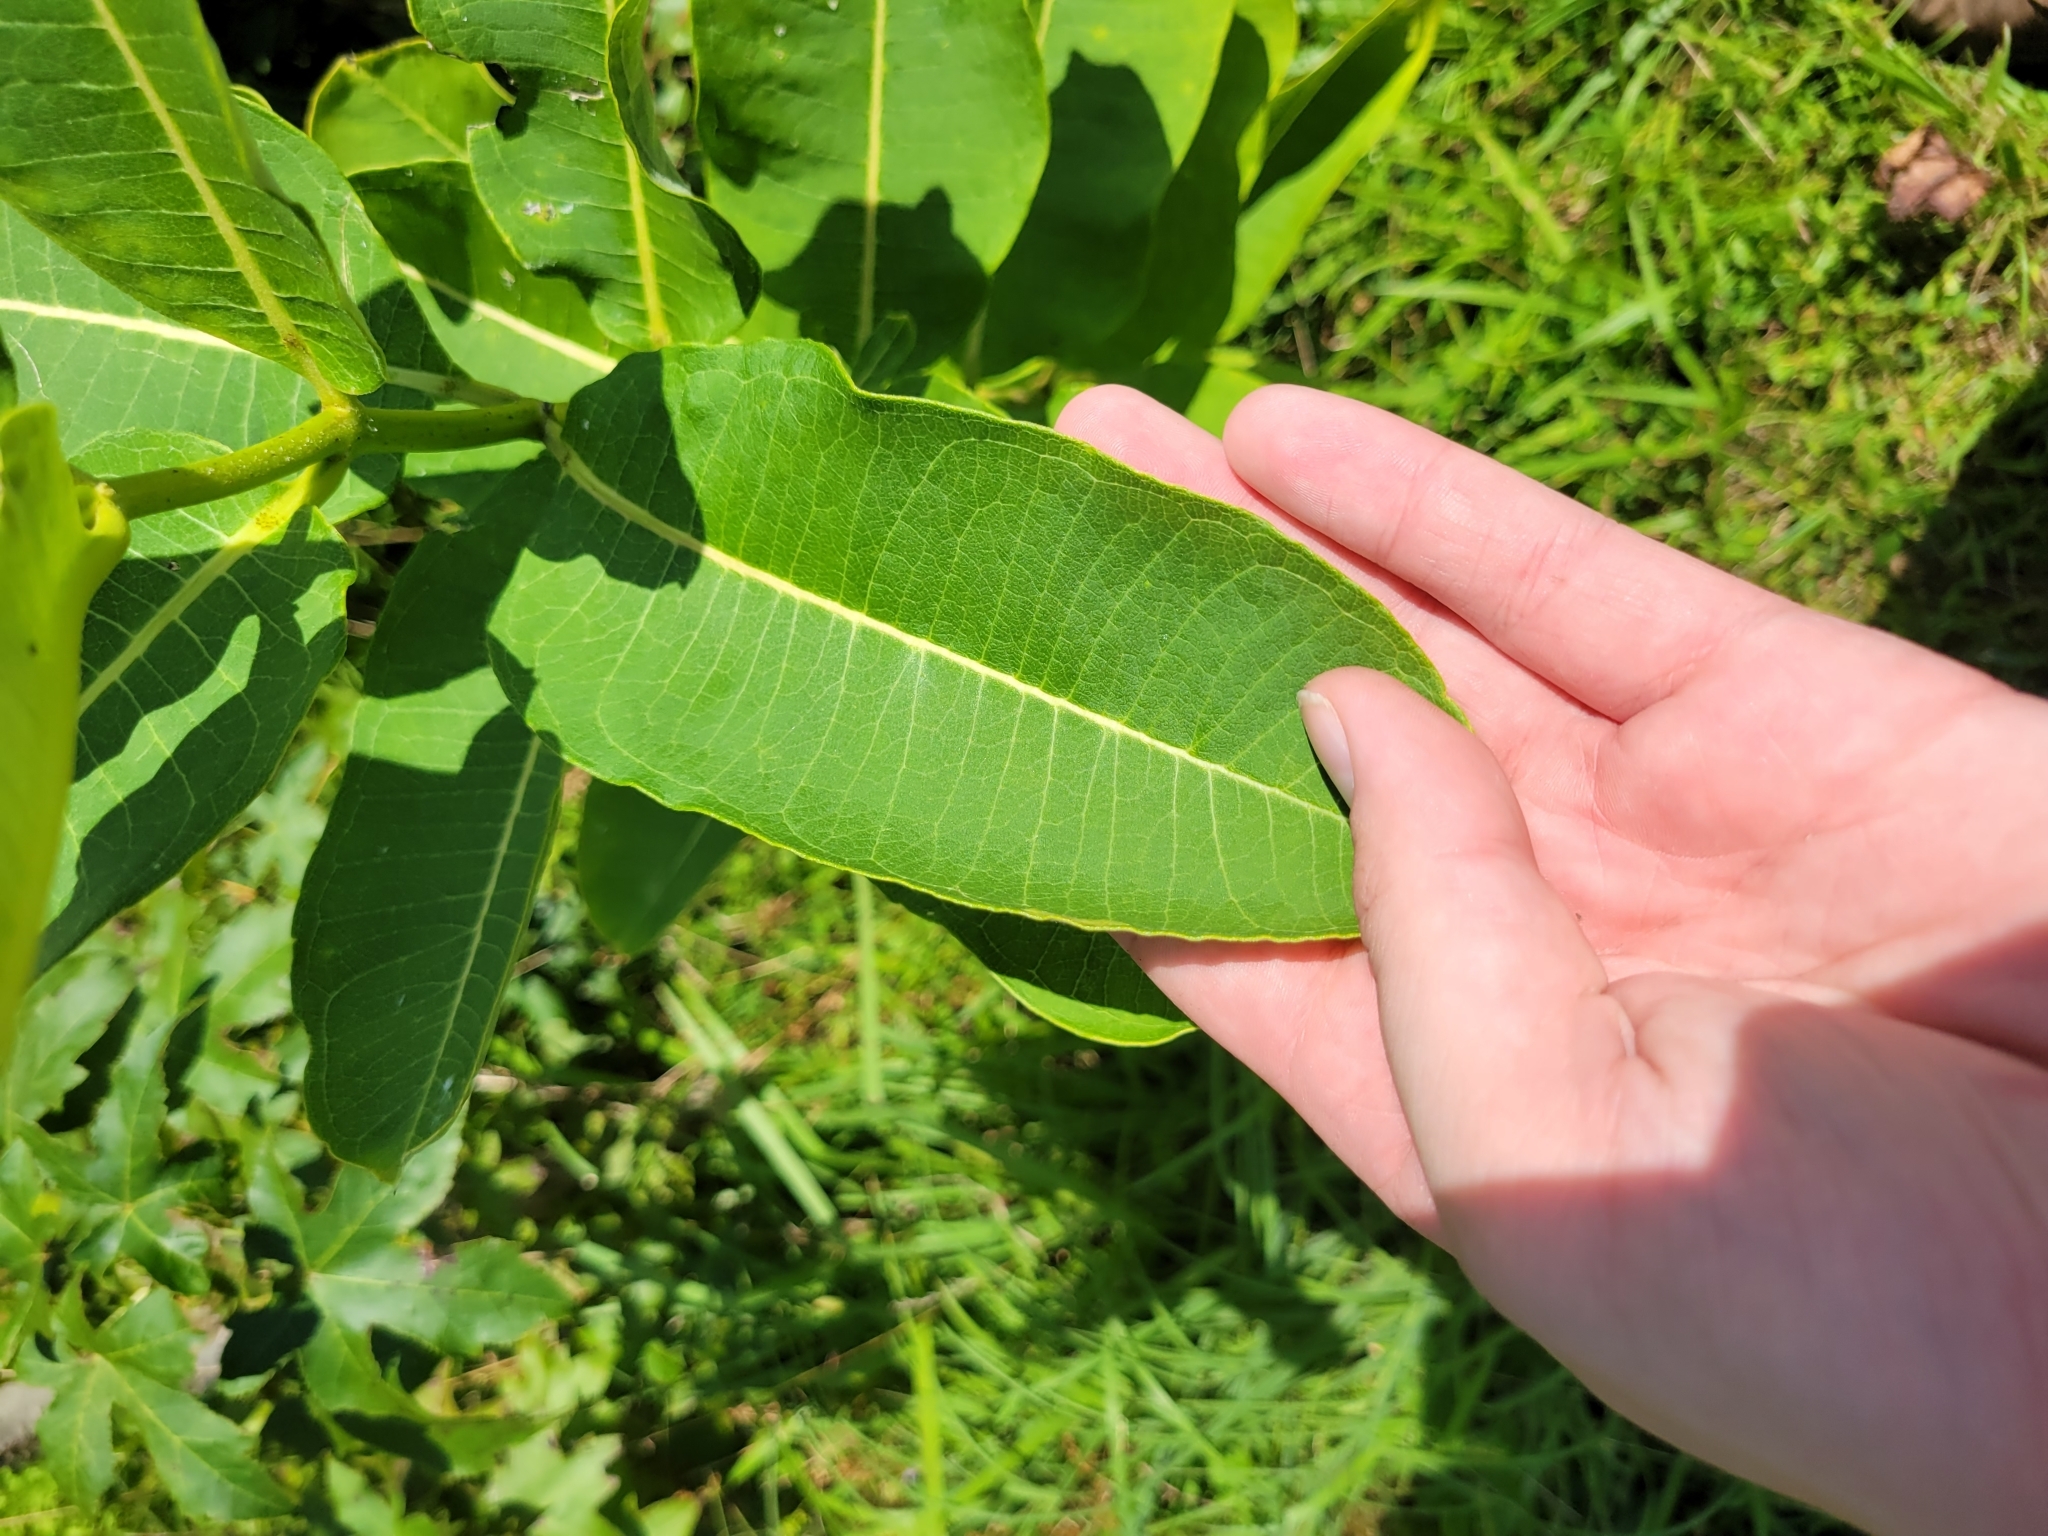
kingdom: Plantae
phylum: Tracheophyta
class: Magnoliopsida
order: Gentianales
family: Apocynaceae
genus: Asclepias
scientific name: Asclepias syriaca
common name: Common milkweed
